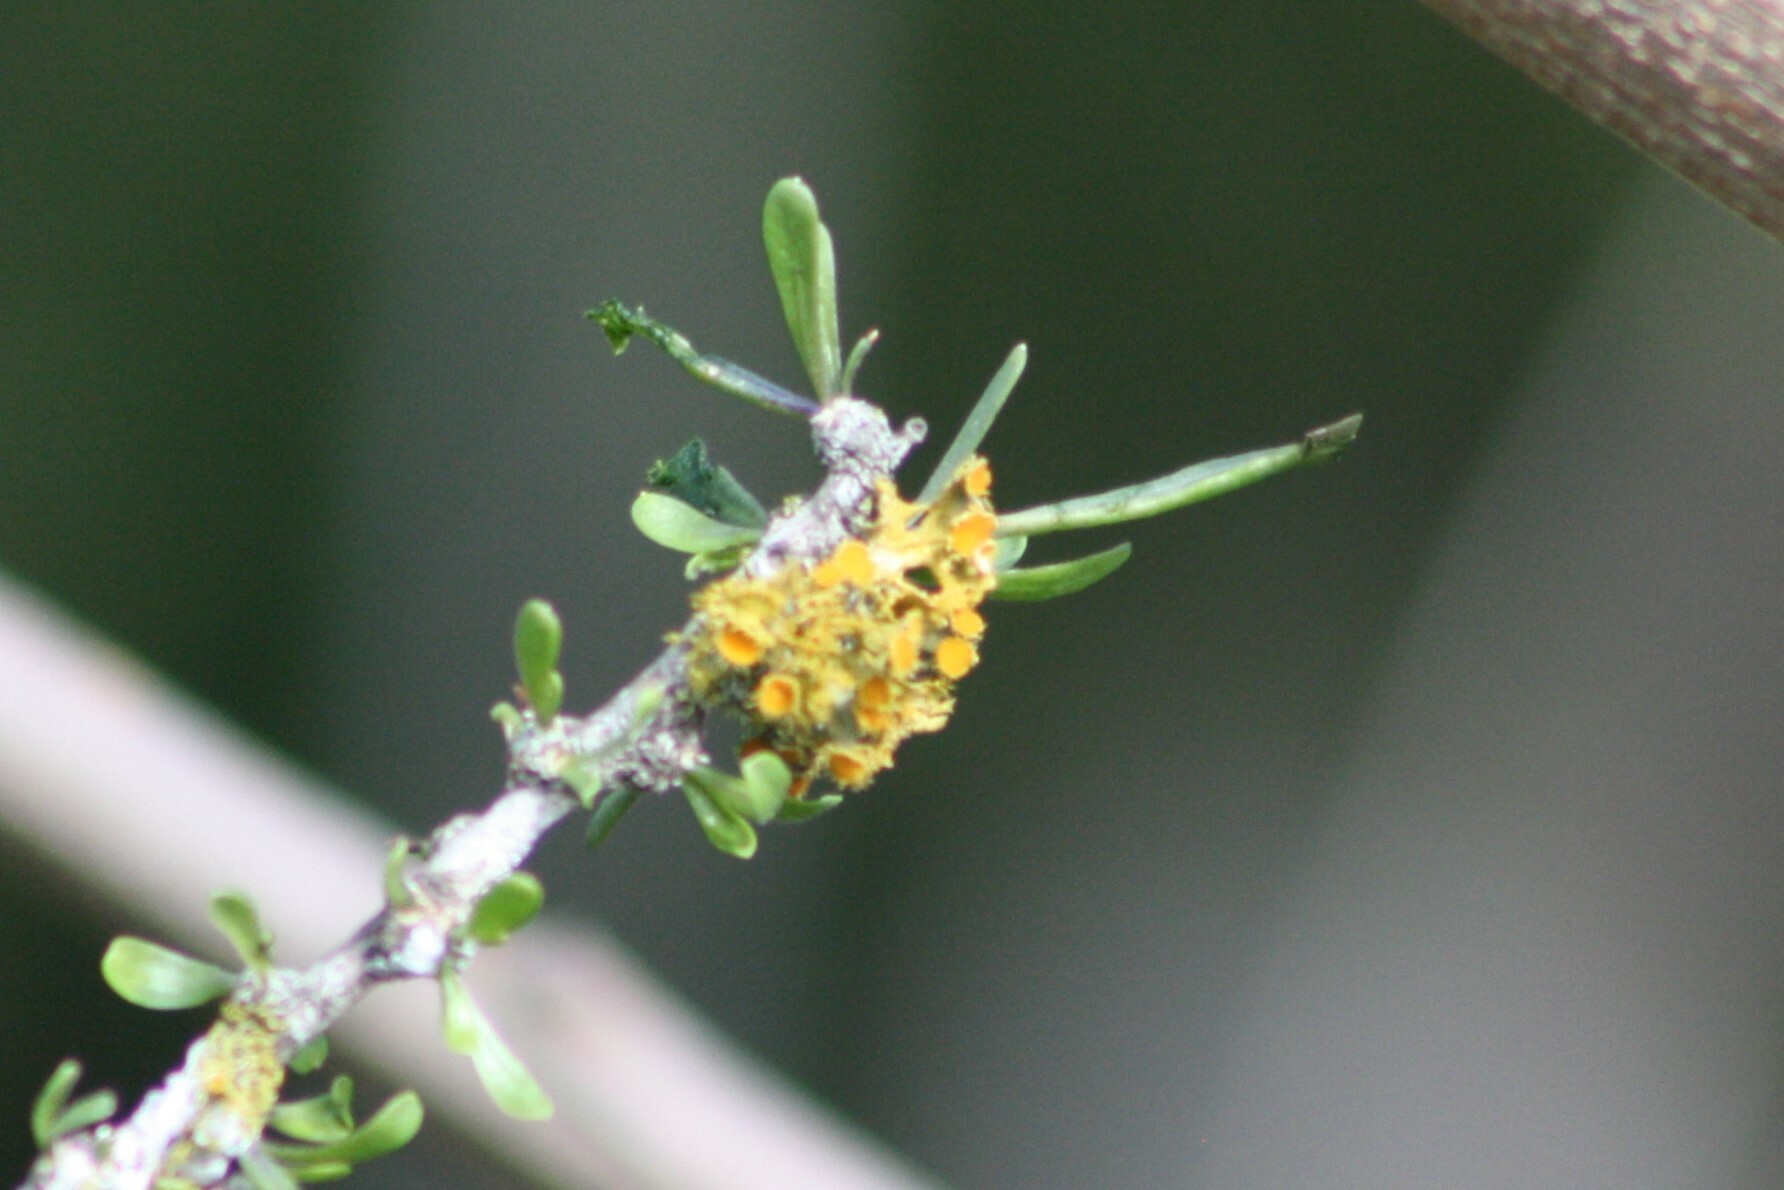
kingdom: Fungi
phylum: Ascomycota
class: Lecanoromycetes
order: Teloschistales
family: Teloschistaceae
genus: Niorma
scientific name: Niorma chrysophthalma
